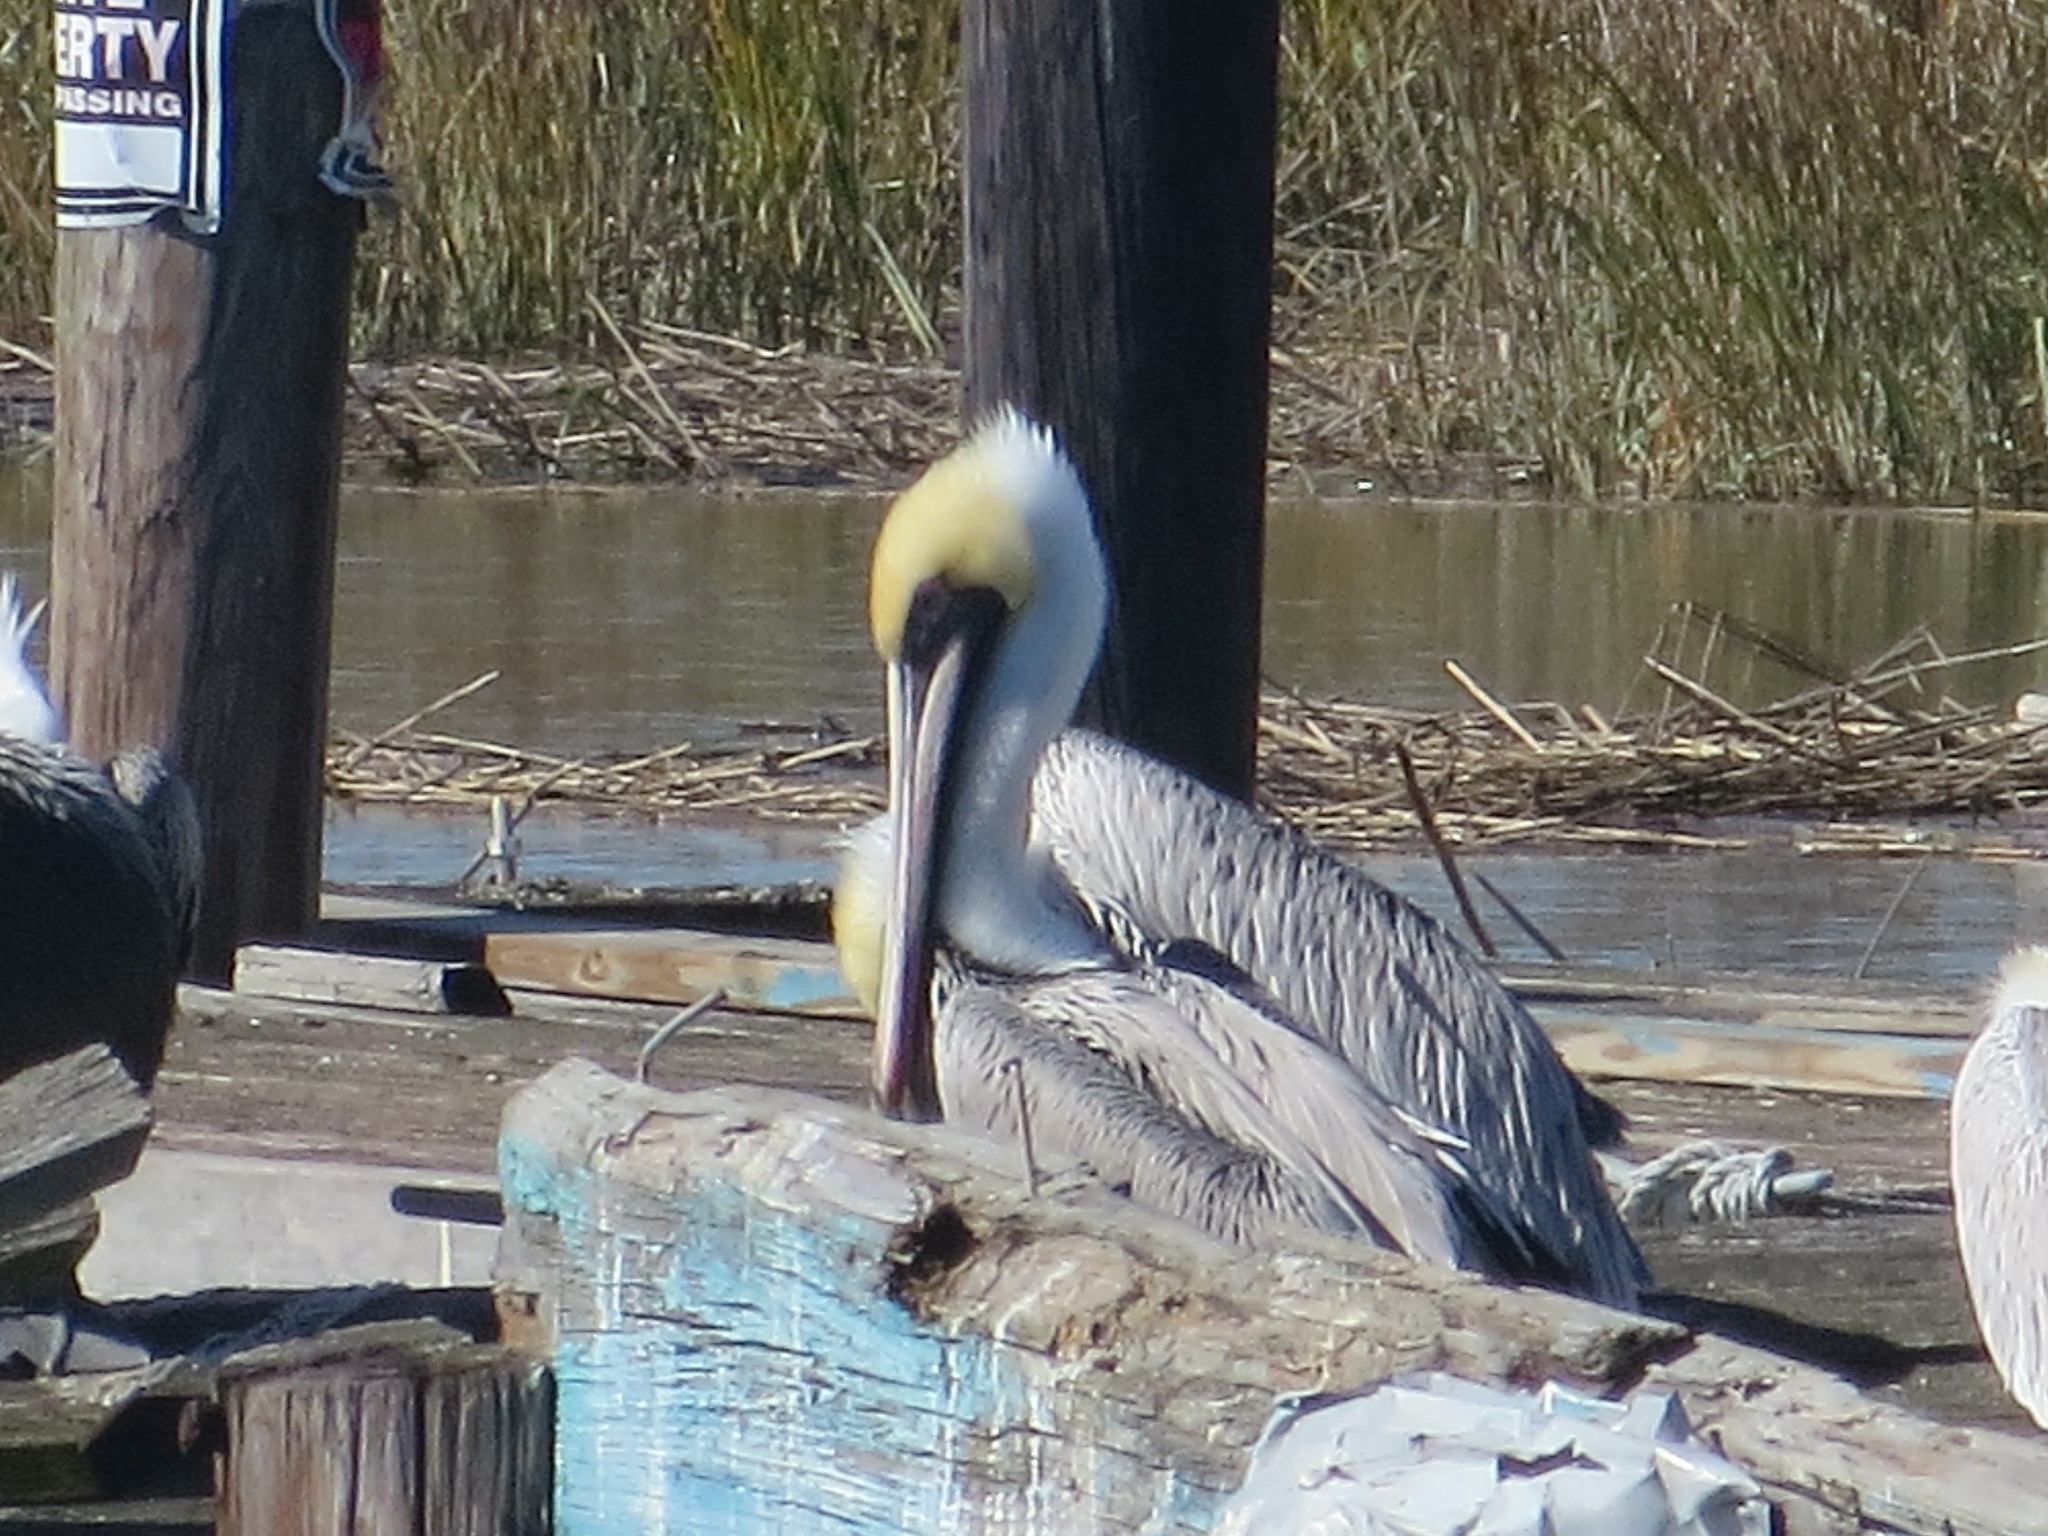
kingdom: Animalia
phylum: Chordata
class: Aves
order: Pelecaniformes
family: Pelecanidae
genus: Pelecanus
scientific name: Pelecanus occidentalis
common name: Brown pelican
